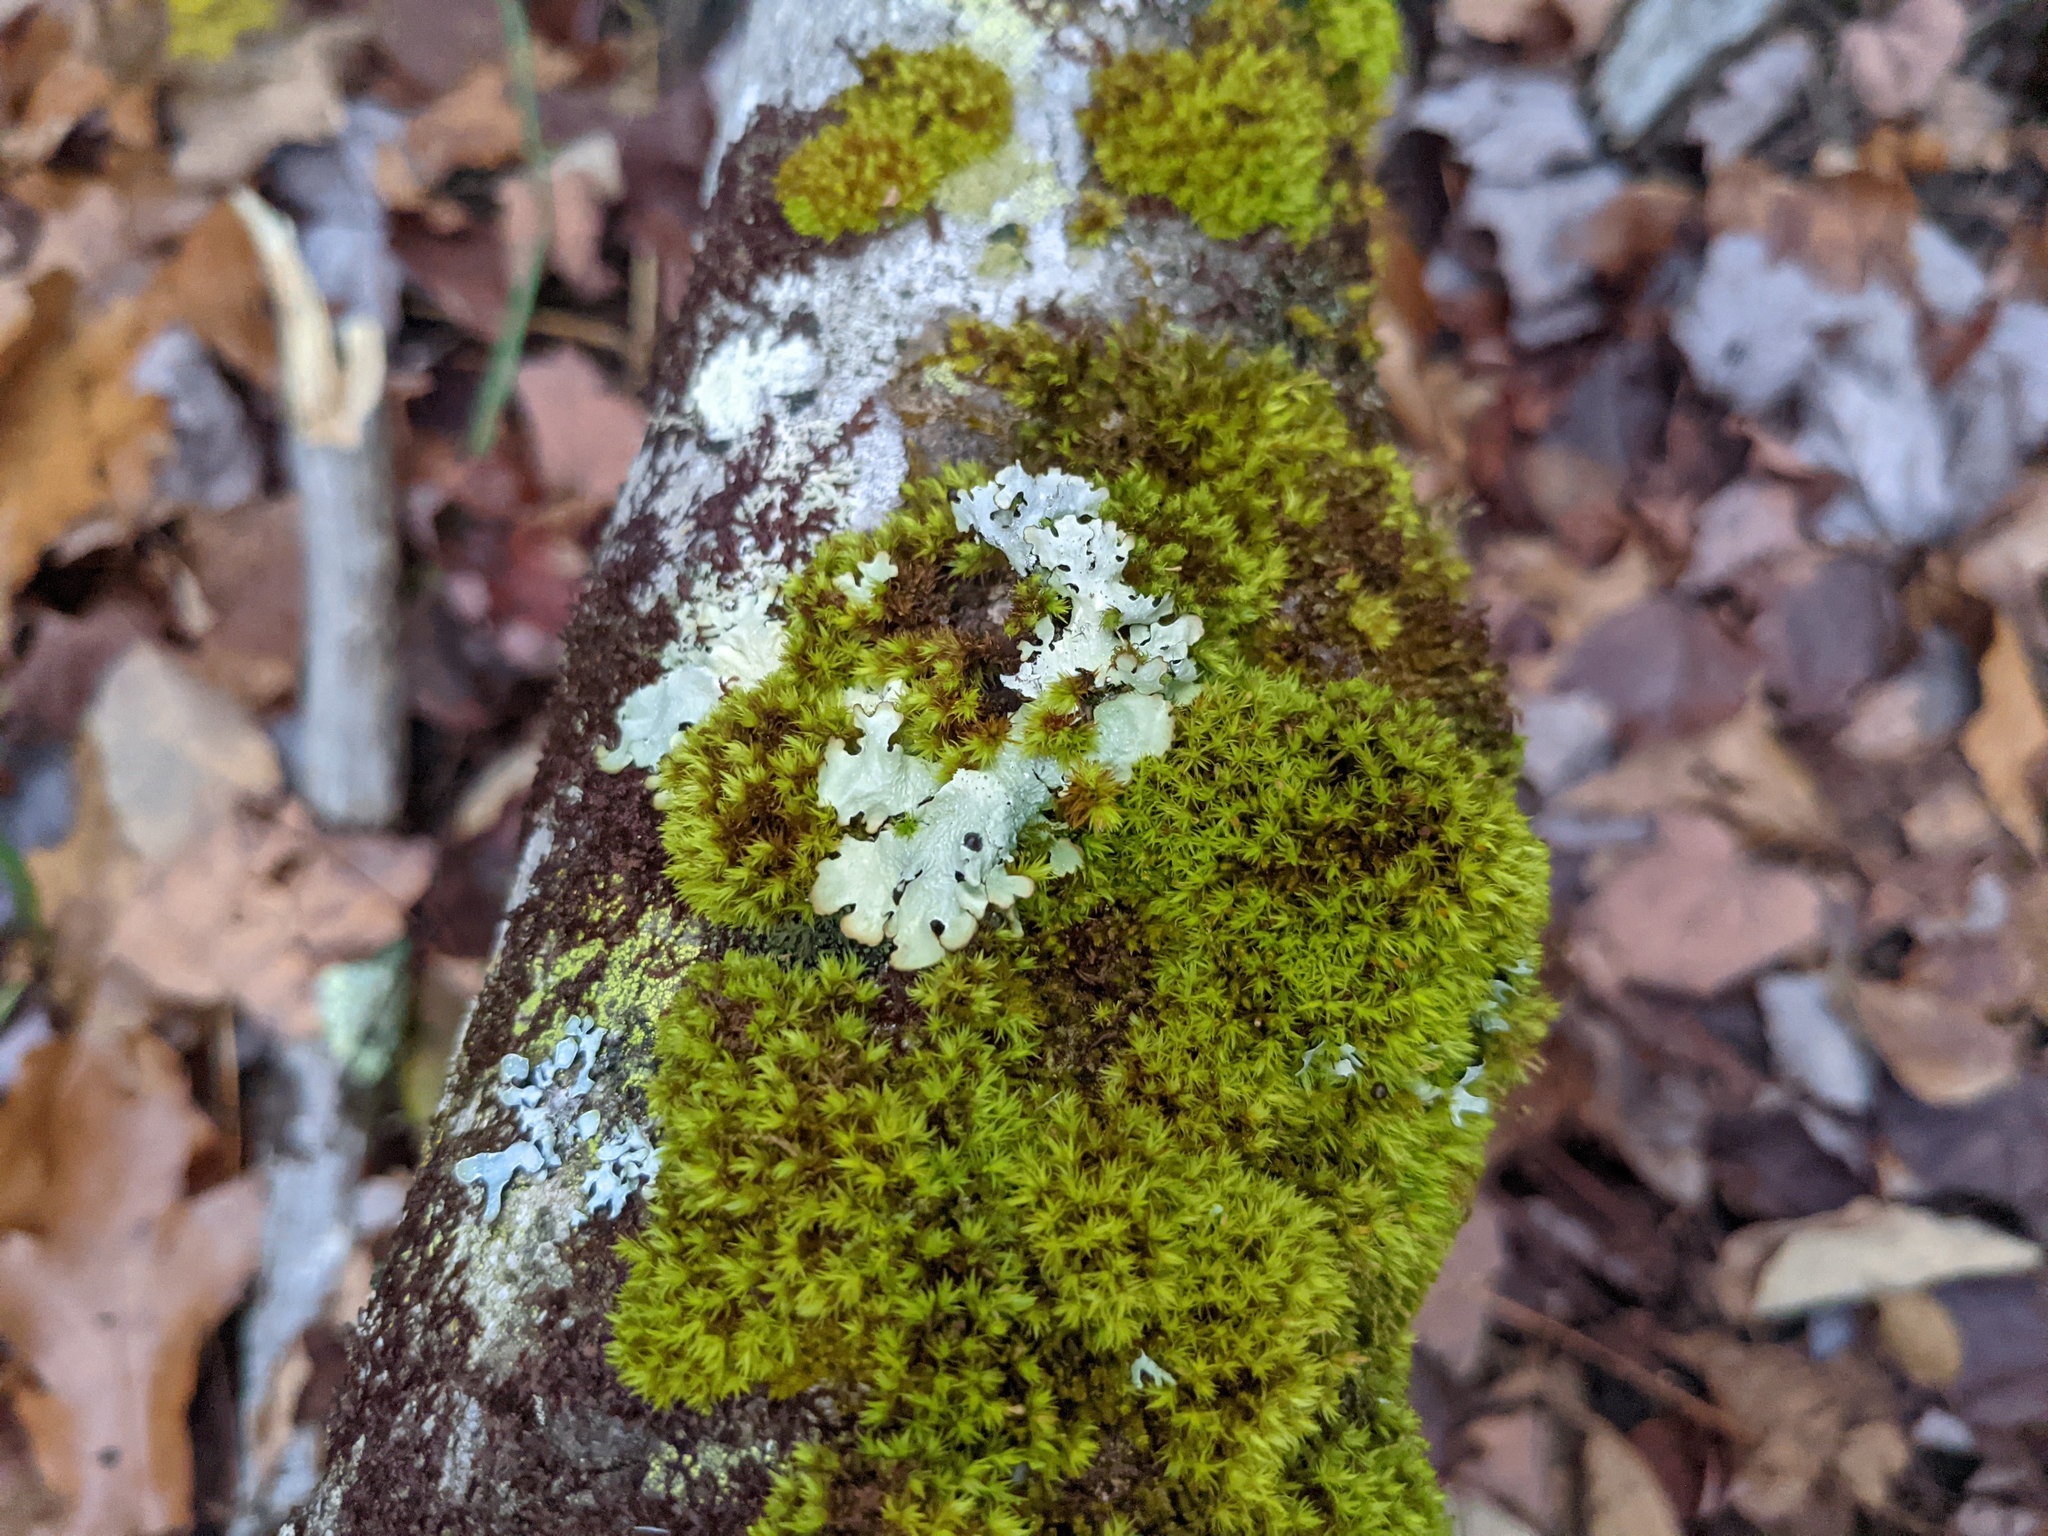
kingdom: Plantae
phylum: Bryophyta
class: Bryopsida
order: Orthotrichales
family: Orthotrichaceae
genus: Ulota
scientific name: Ulota crispa
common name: Crisped pincushion moss
